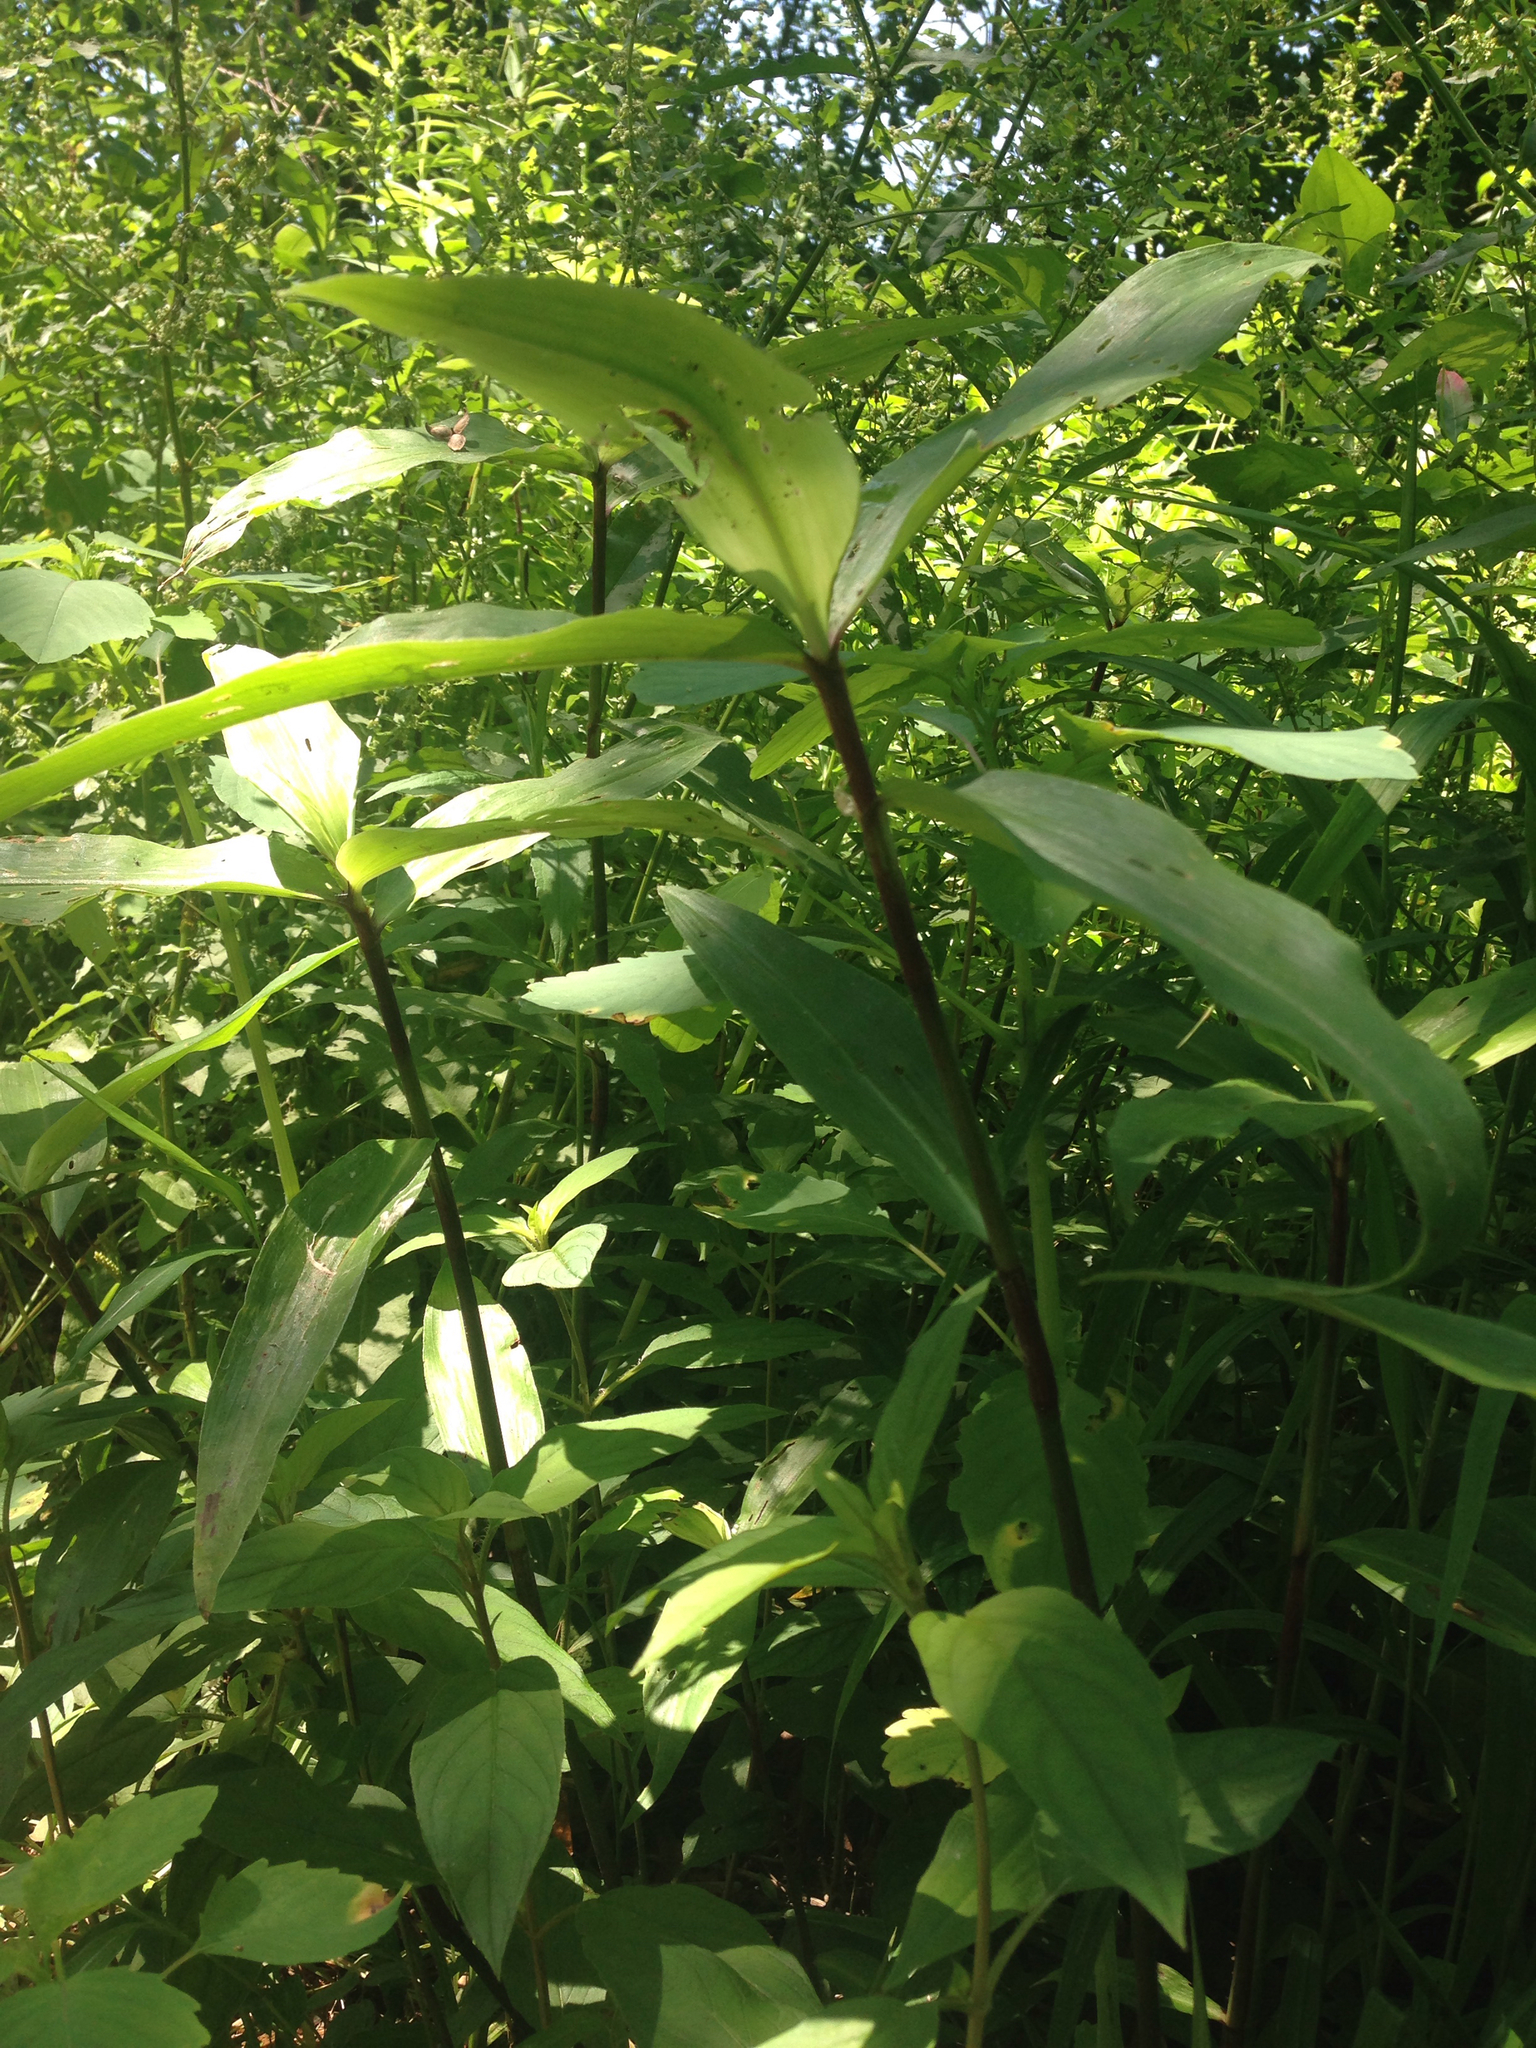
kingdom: Plantae
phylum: Tracheophyta
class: Liliopsida
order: Commelinales
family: Commelinaceae
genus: Commelina
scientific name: Commelina virginica
